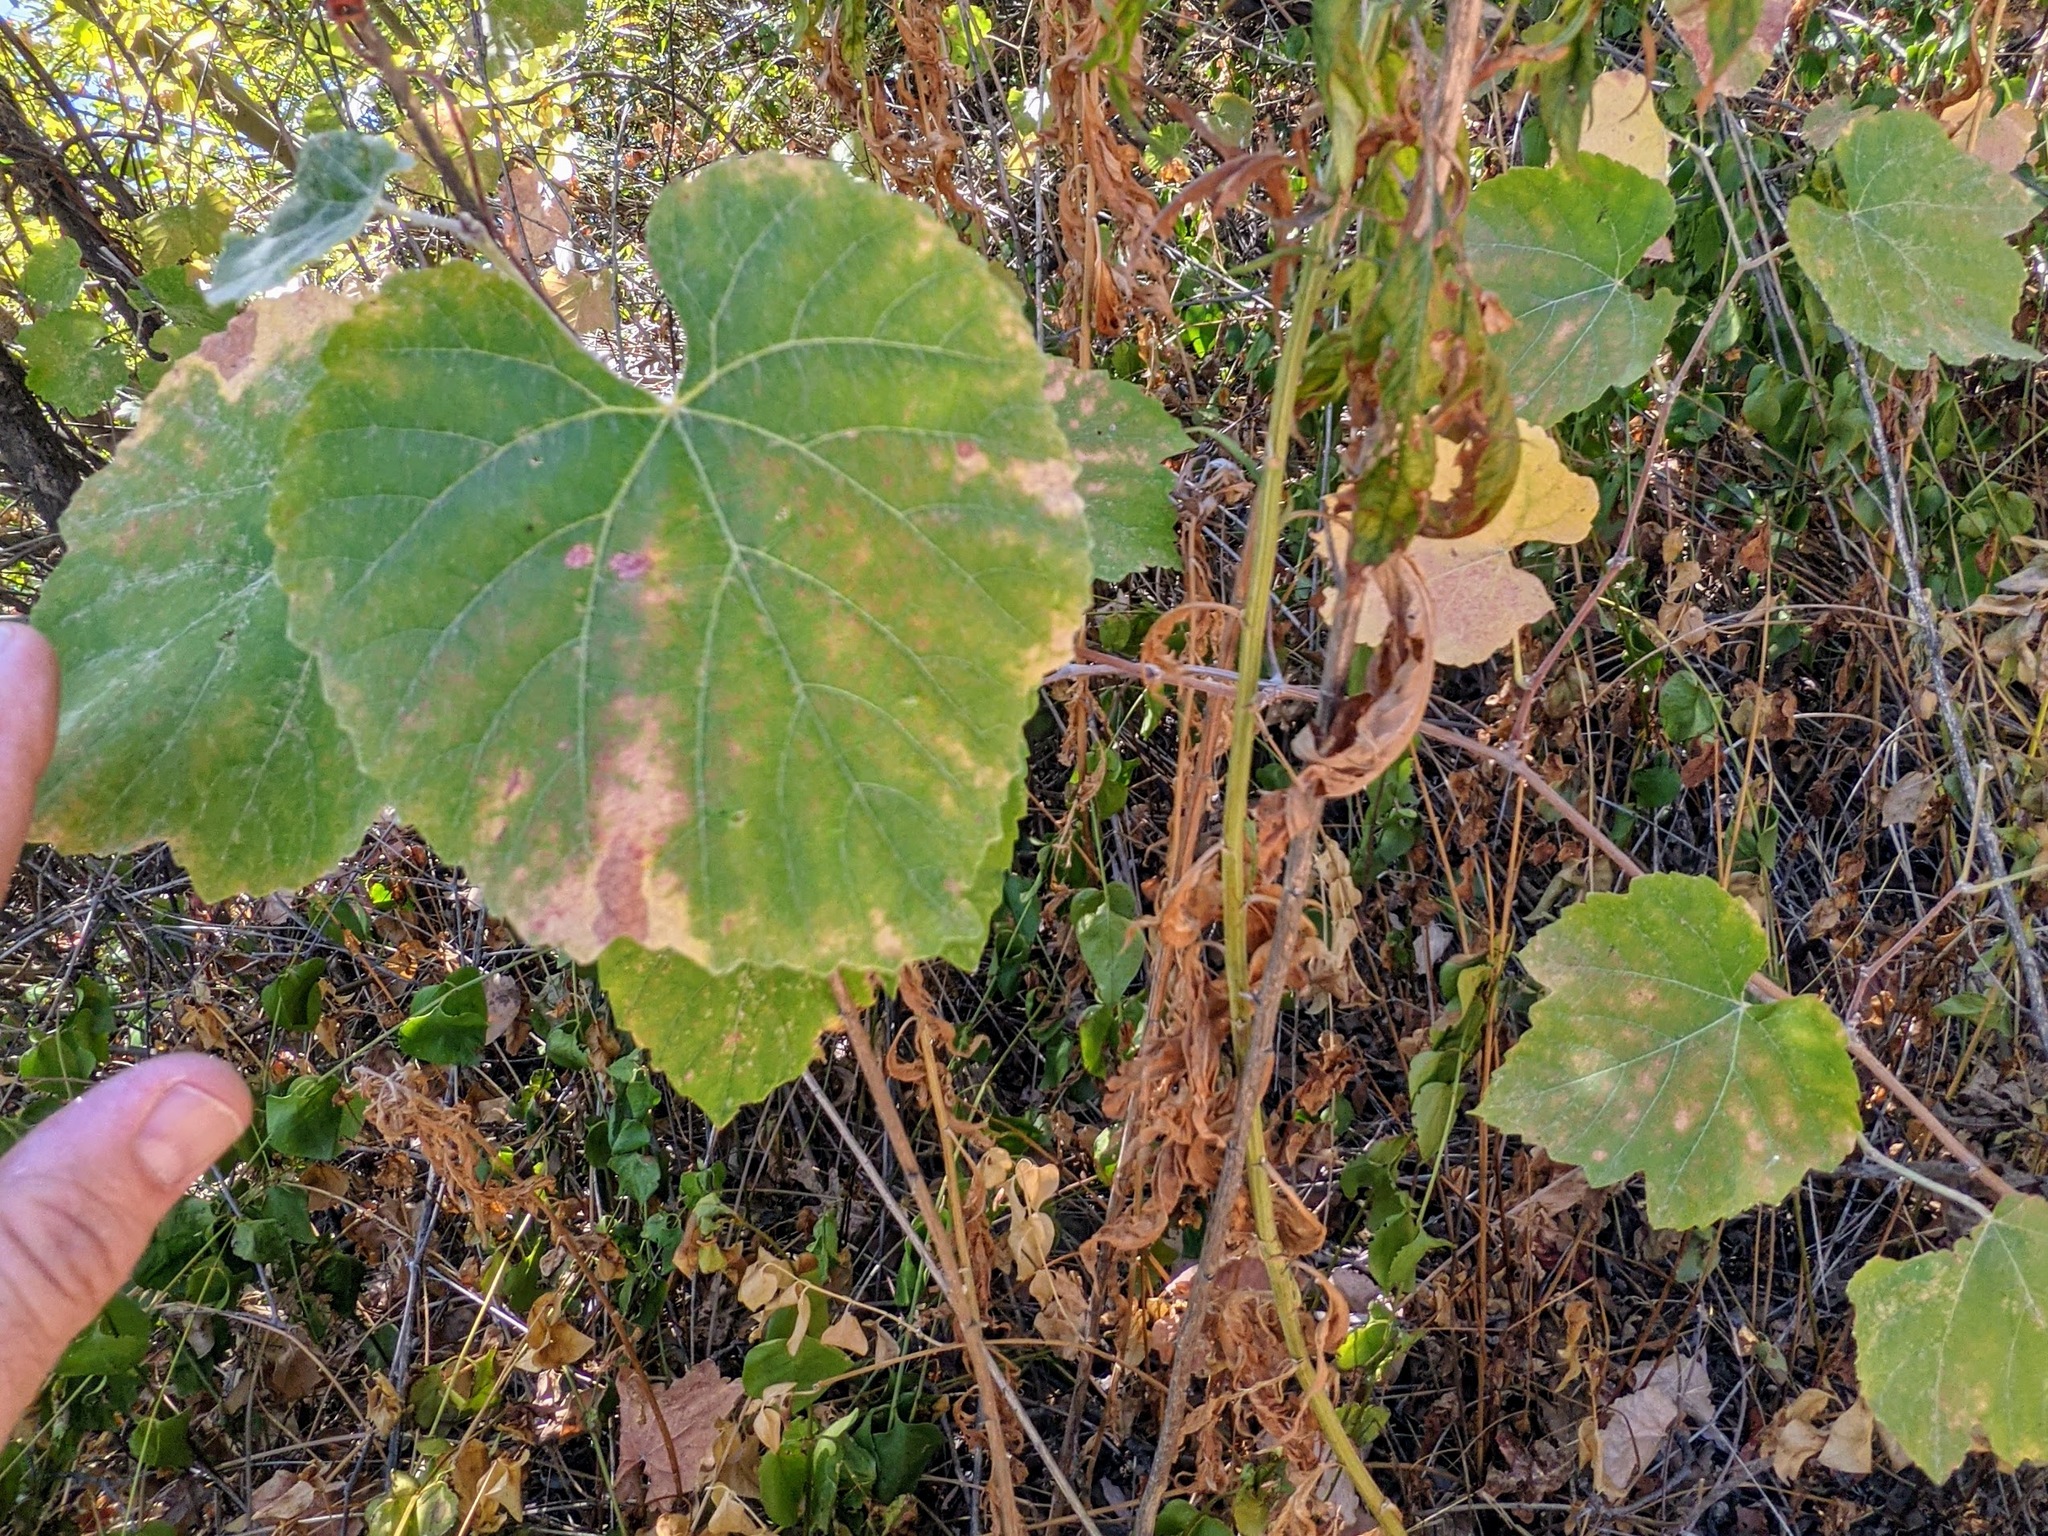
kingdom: Plantae
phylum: Tracheophyta
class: Magnoliopsida
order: Vitales
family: Vitaceae
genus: Vitis
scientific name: Vitis californica
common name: California wild grape
